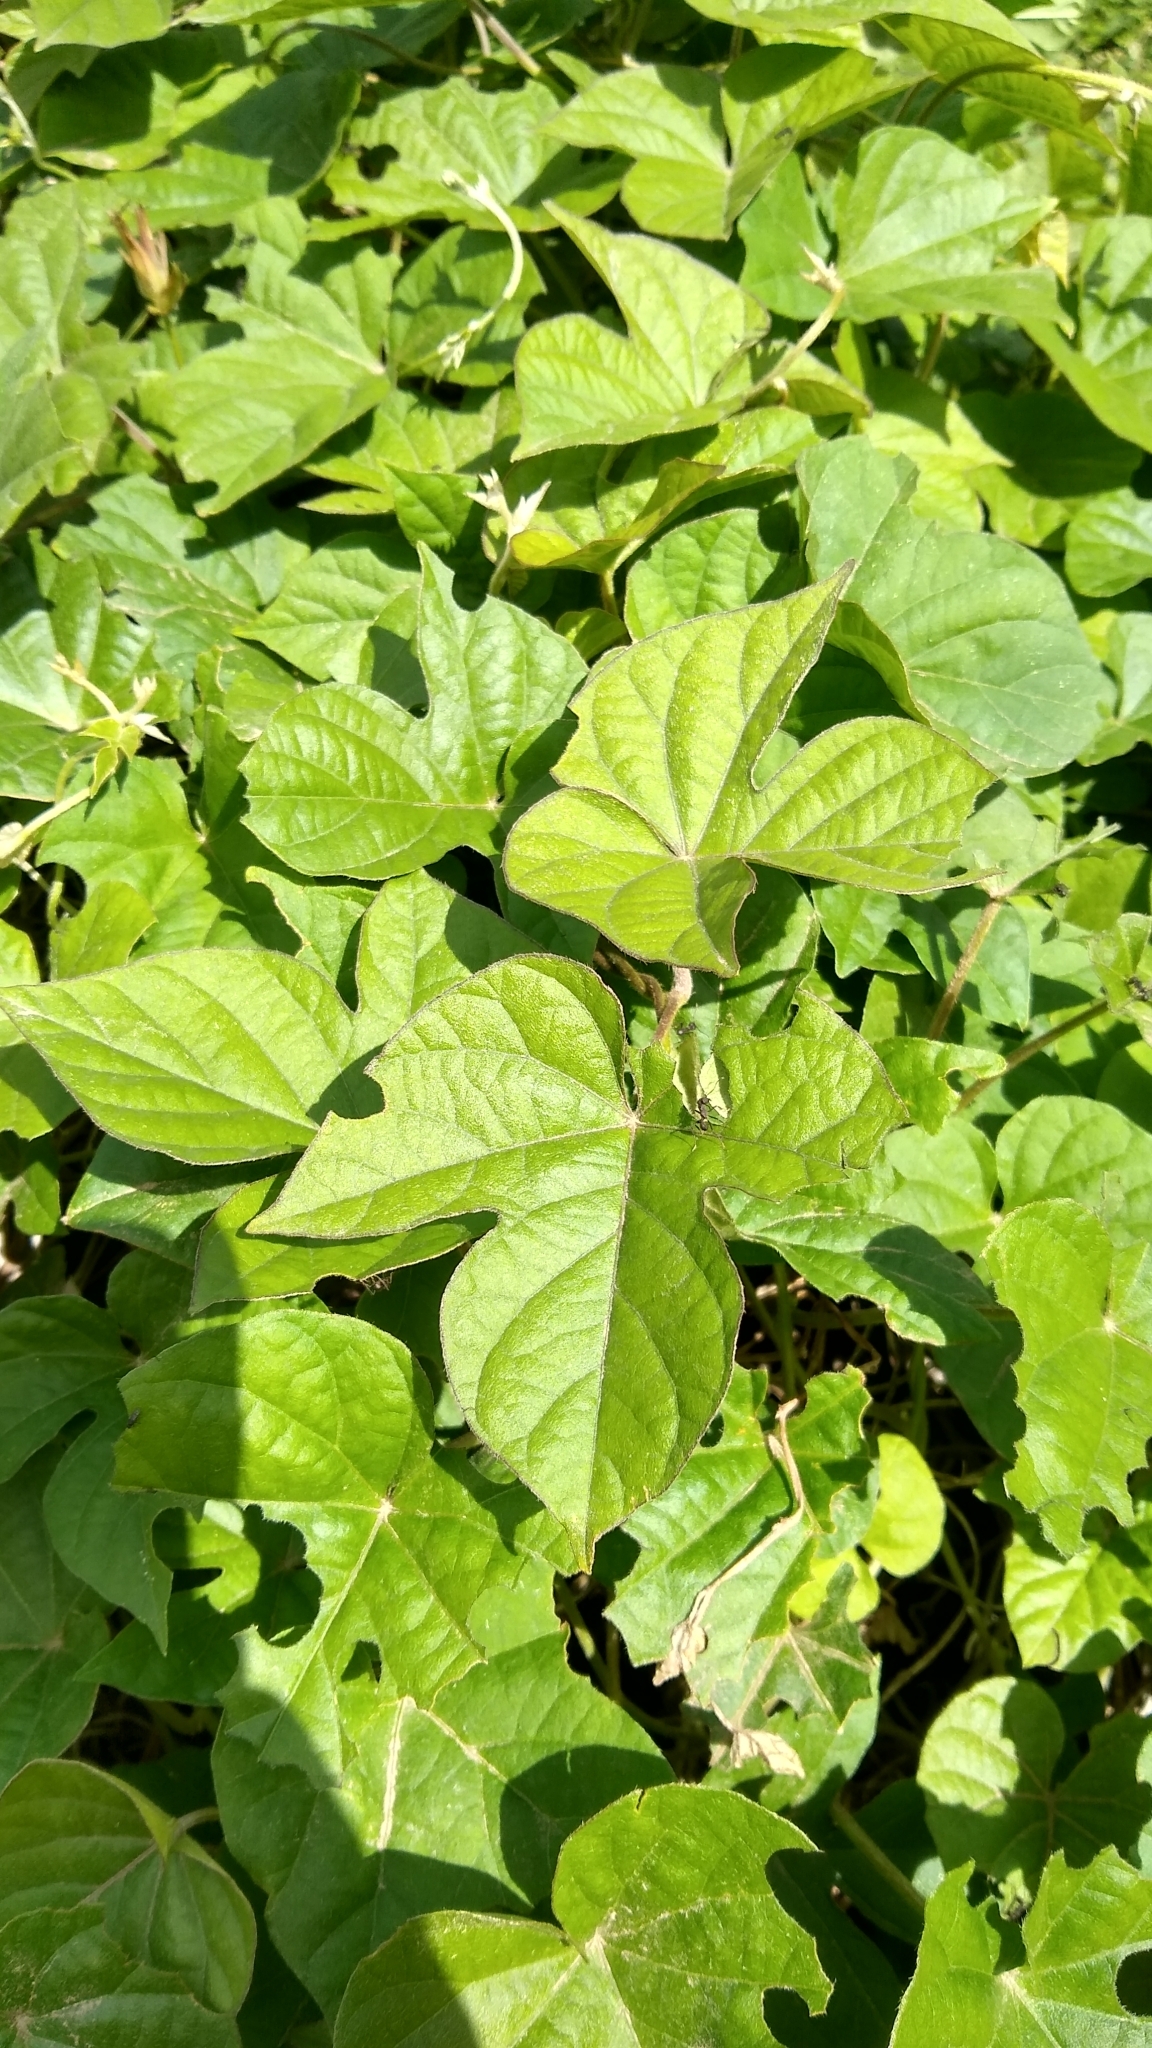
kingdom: Plantae
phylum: Tracheophyta
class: Magnoliopsida
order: Solanales
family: Convolvulaceae
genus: Ipomoea
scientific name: Ipomoea indica
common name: Blue dawnflower
